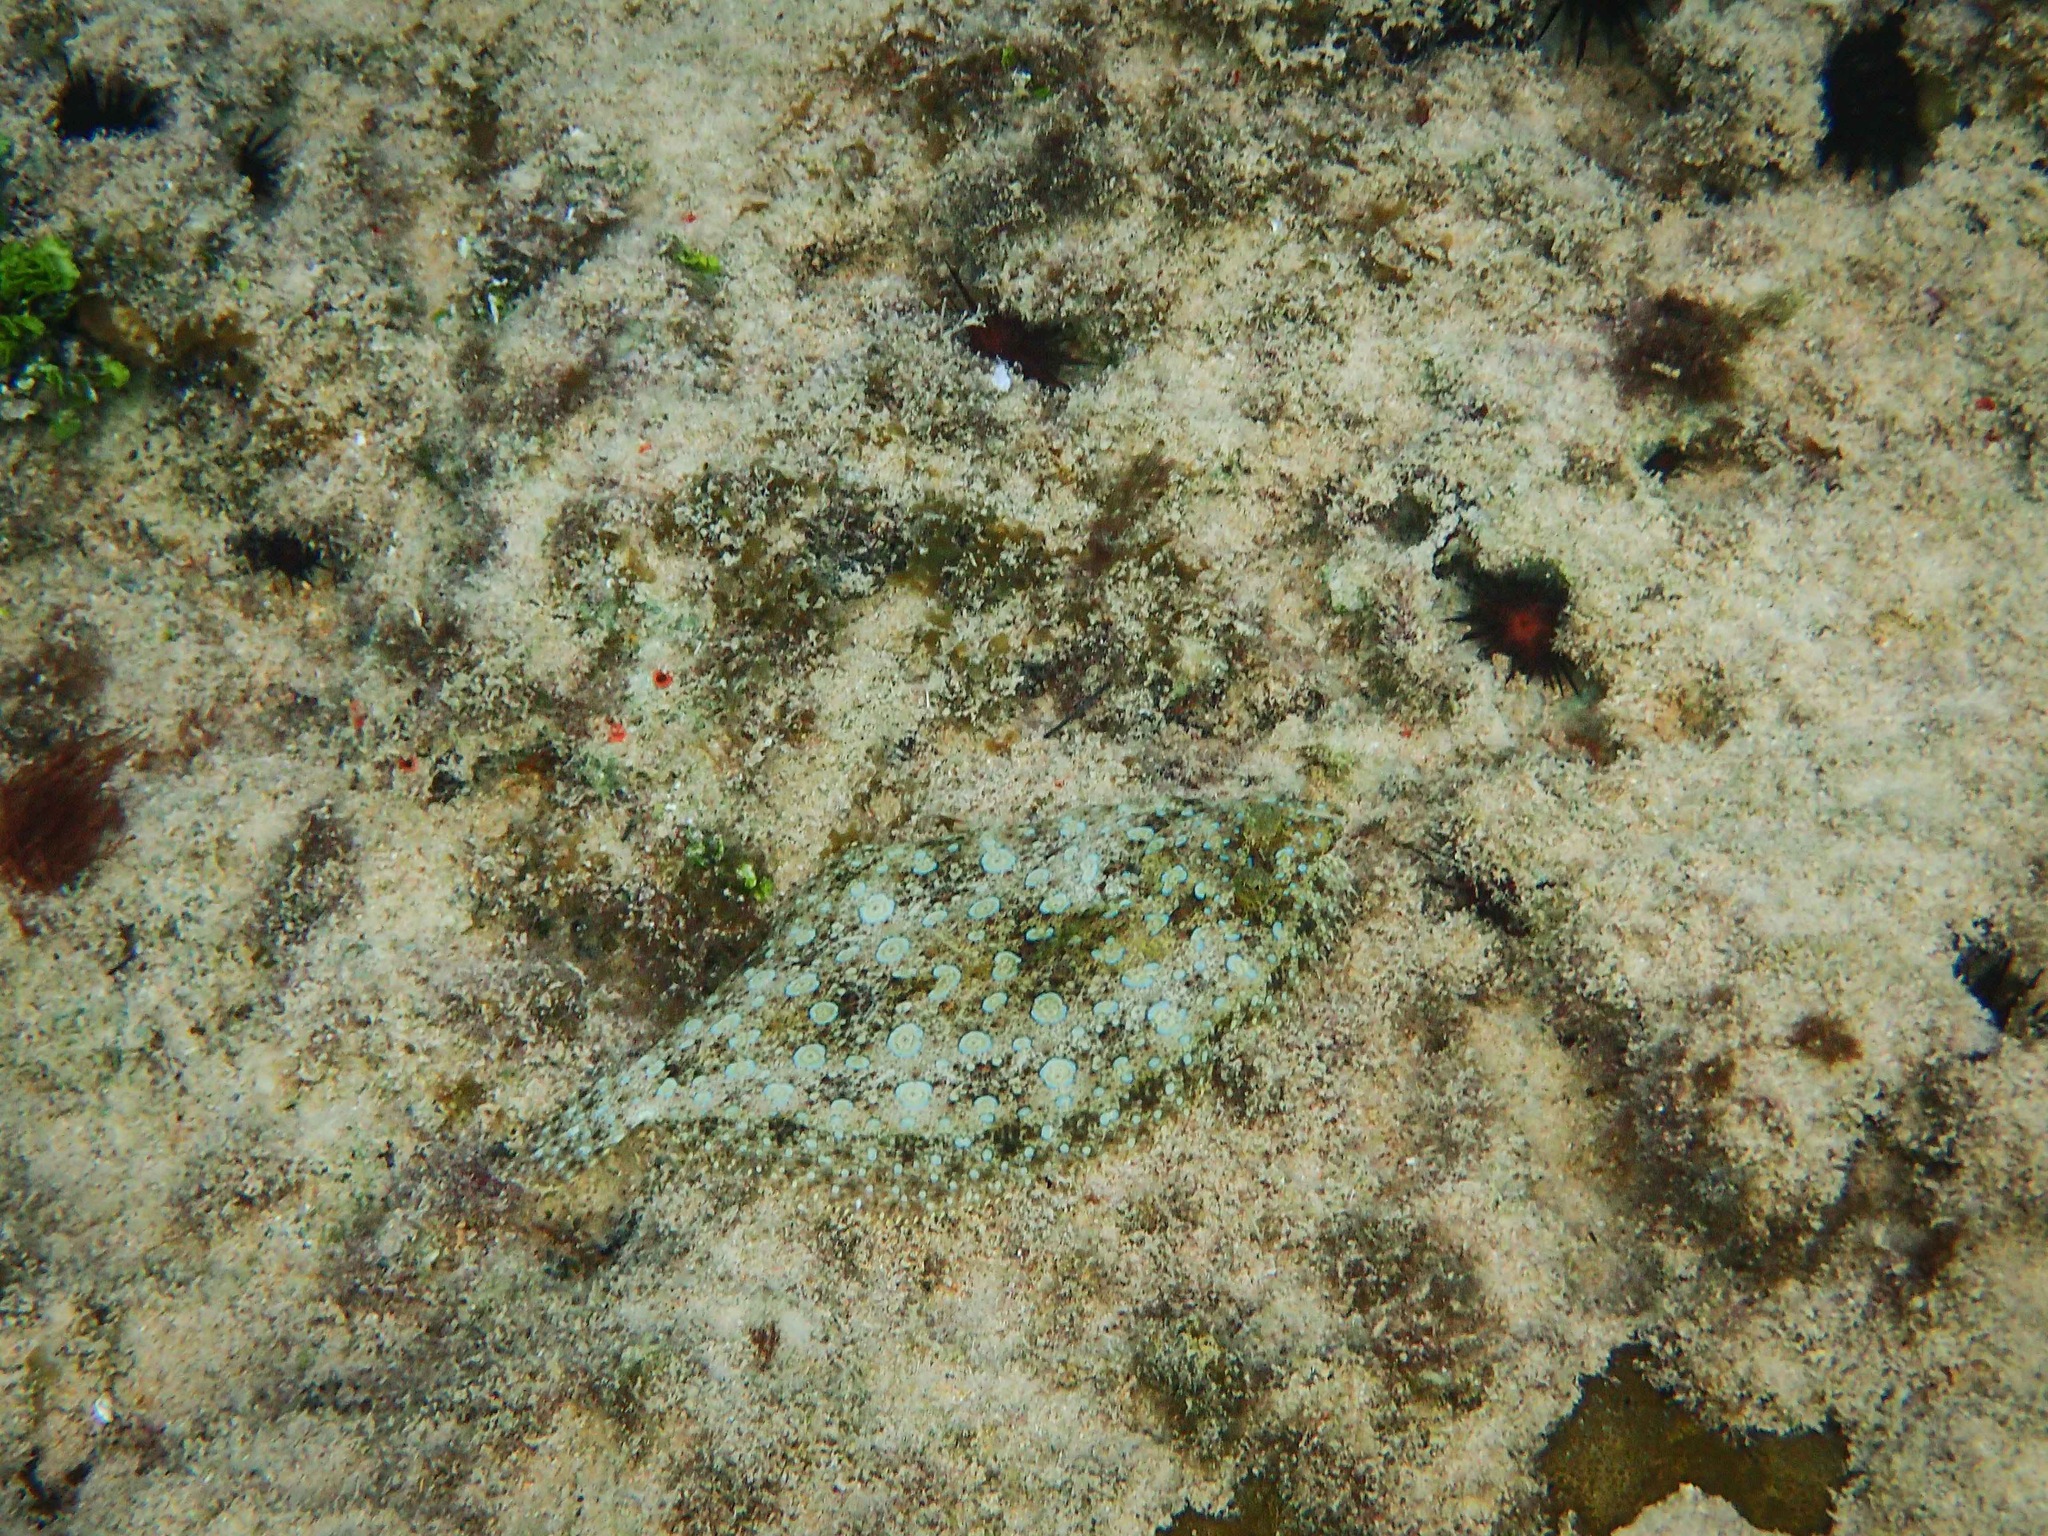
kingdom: Animalia
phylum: Chordata
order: Pleuronectiformes
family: Bothidae
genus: Bothus
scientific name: Bothus lunatus
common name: Peacock flounder
